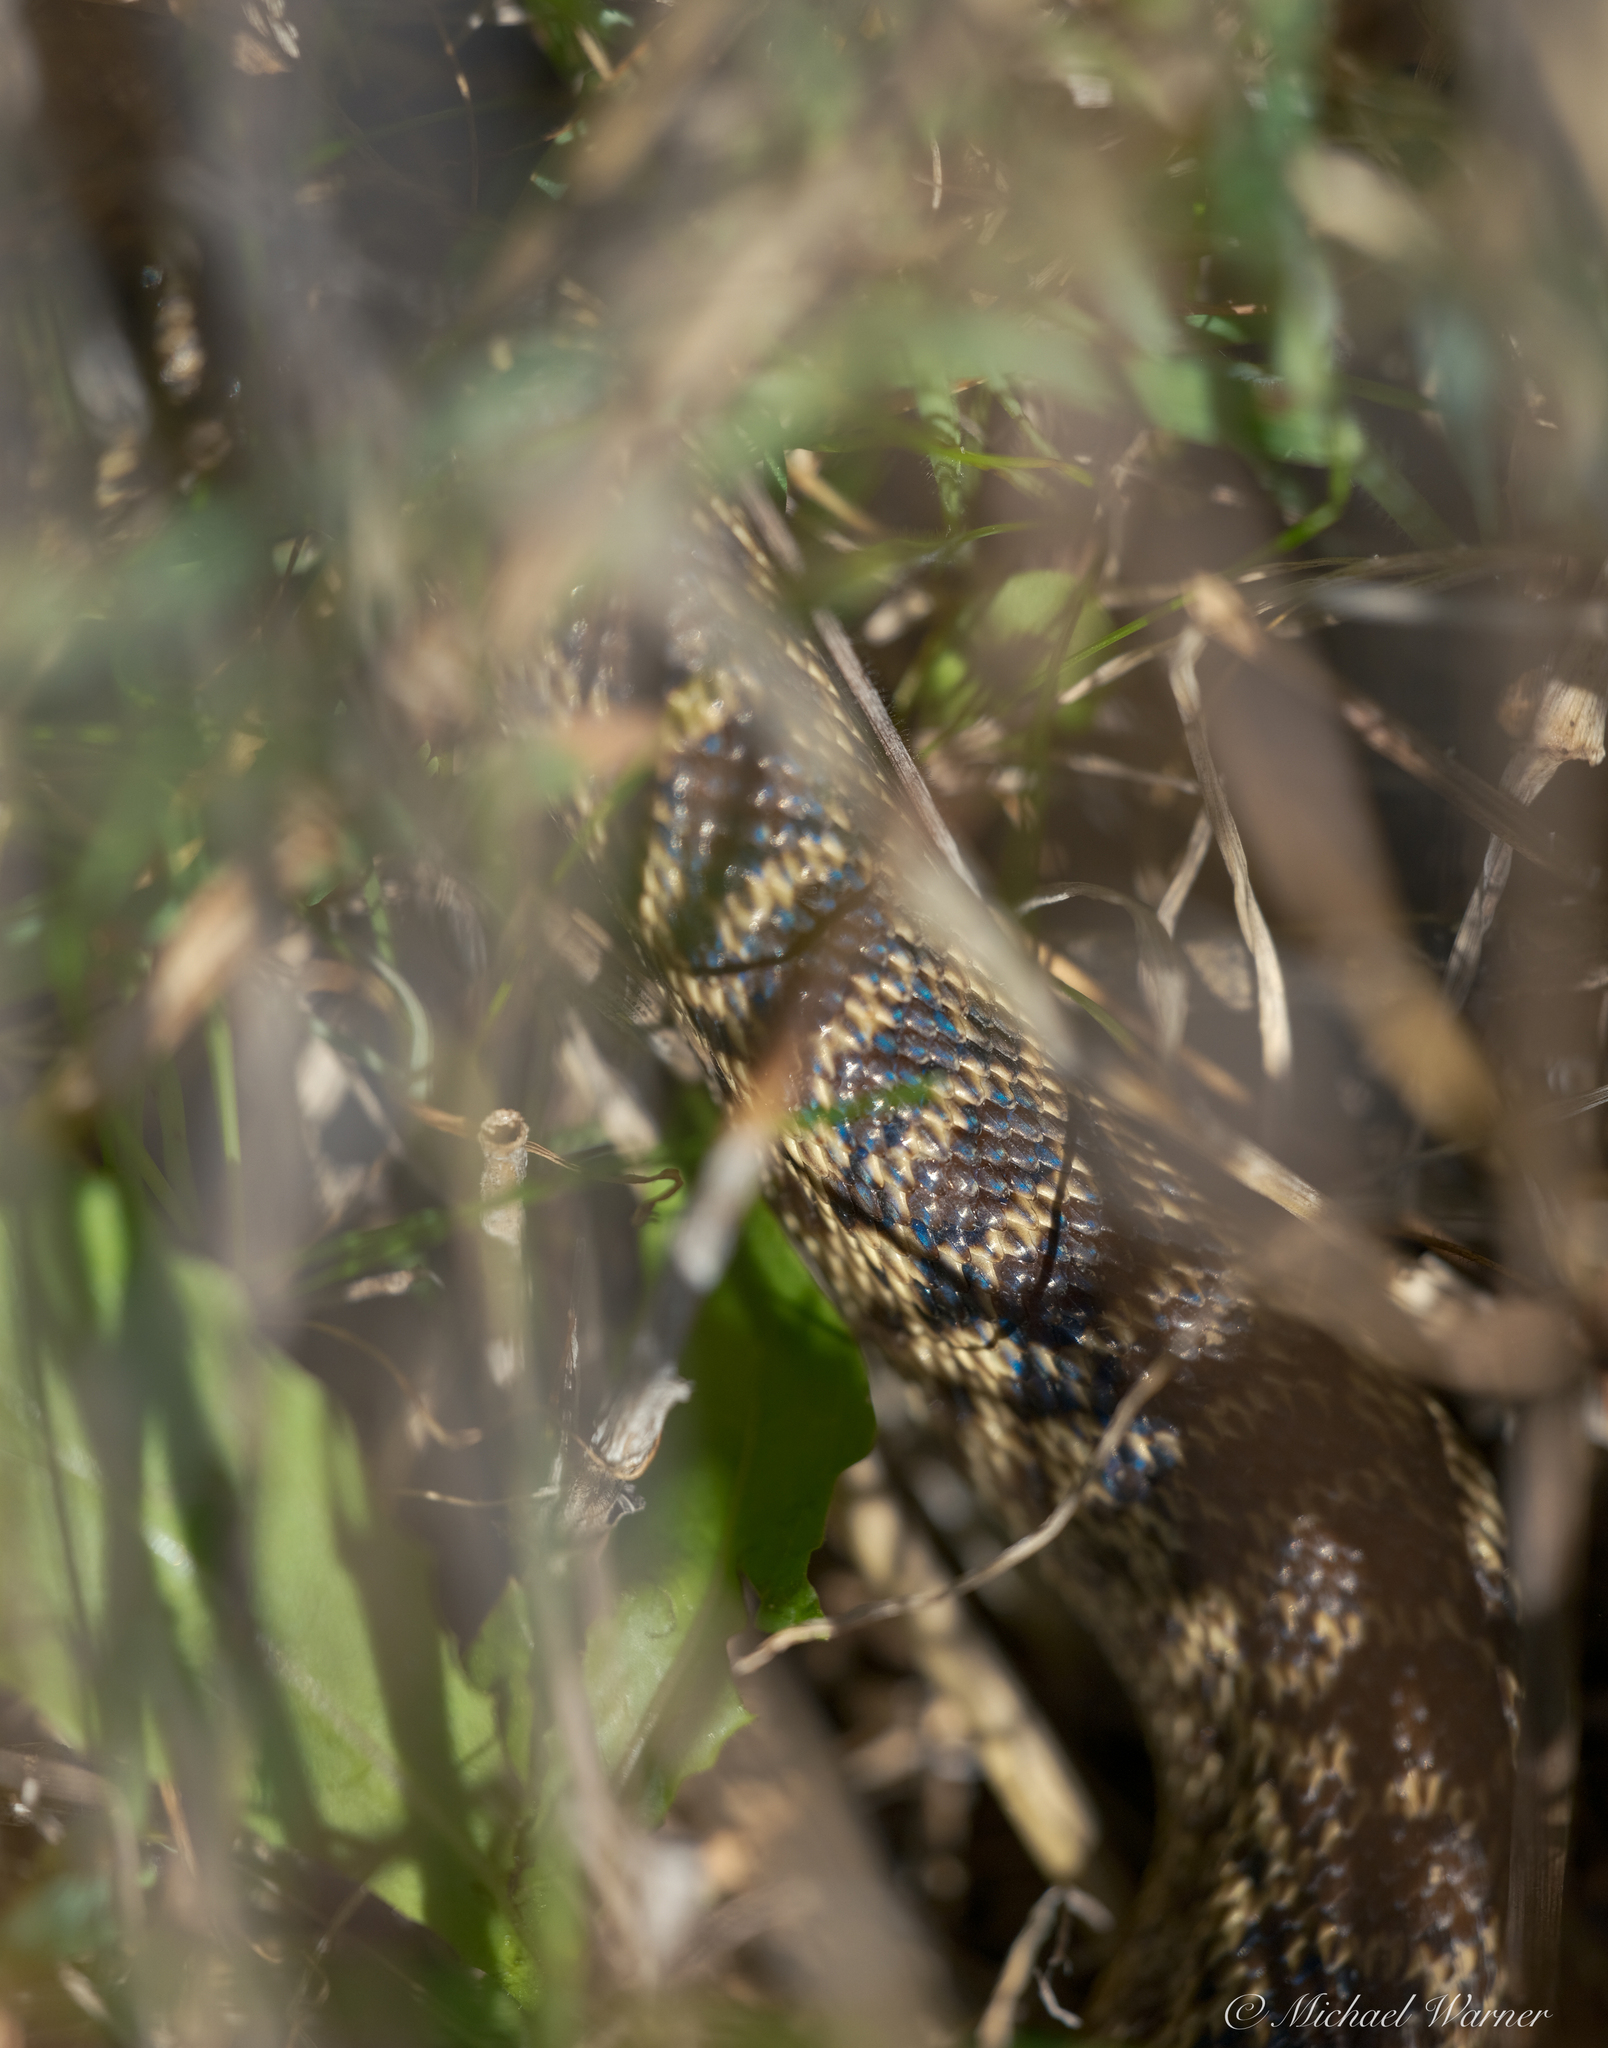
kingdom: Animalia
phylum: Chordata
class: Squamata
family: Colubridae
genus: Pituophis
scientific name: Pituophis catenifer
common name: Gopher snake
